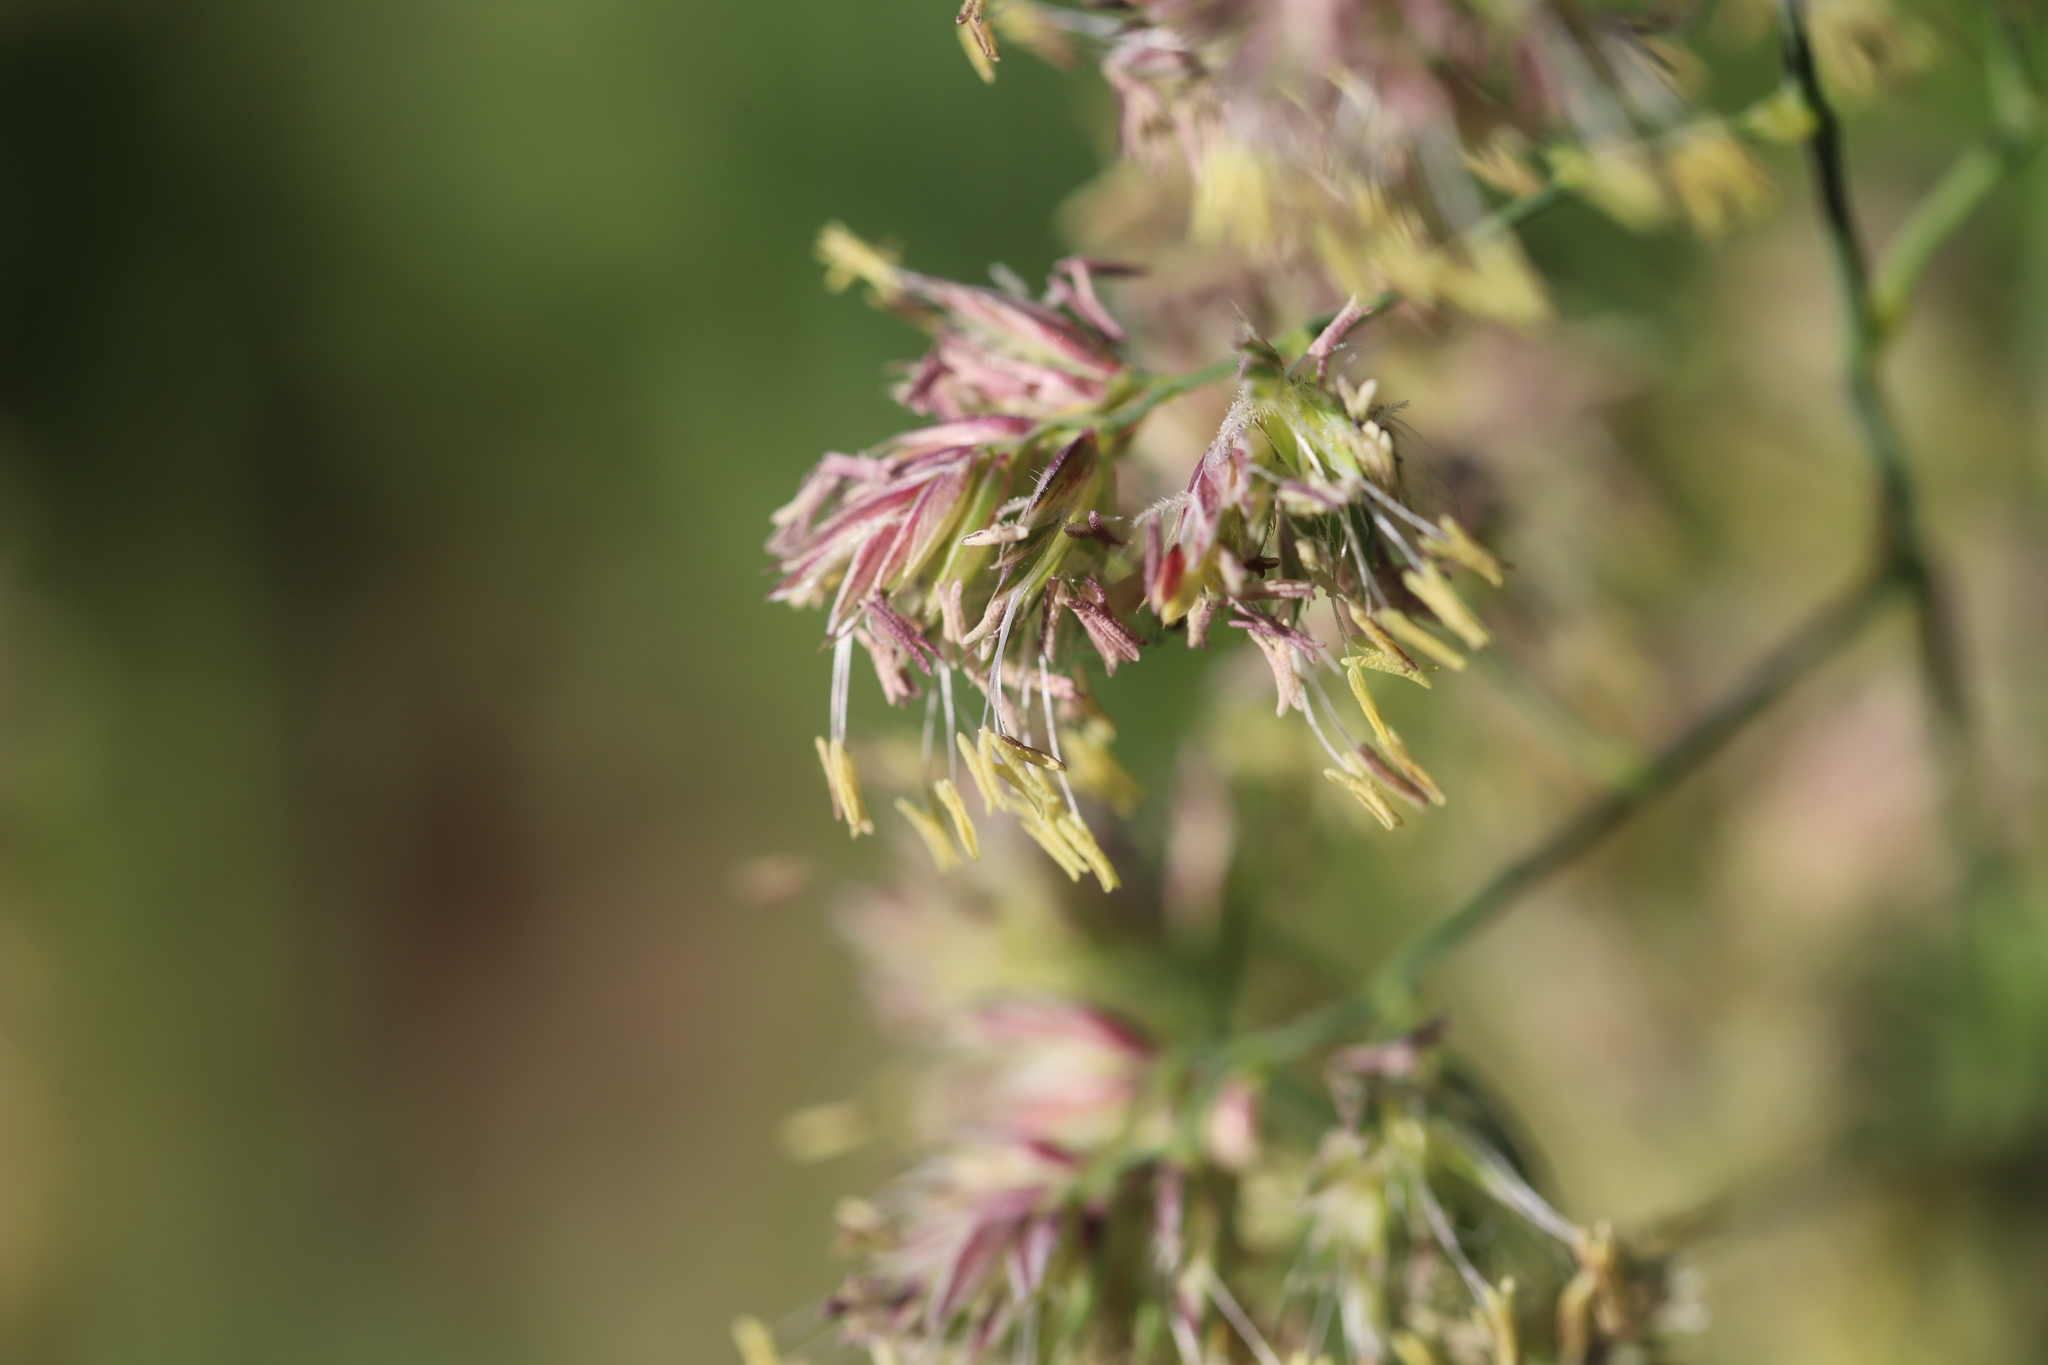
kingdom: Plantae
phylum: Tracheophyta
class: Liliopsida
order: Poales
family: Poaceae
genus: Dactylis
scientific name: Dactylis glomerata
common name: Orchardgrass
